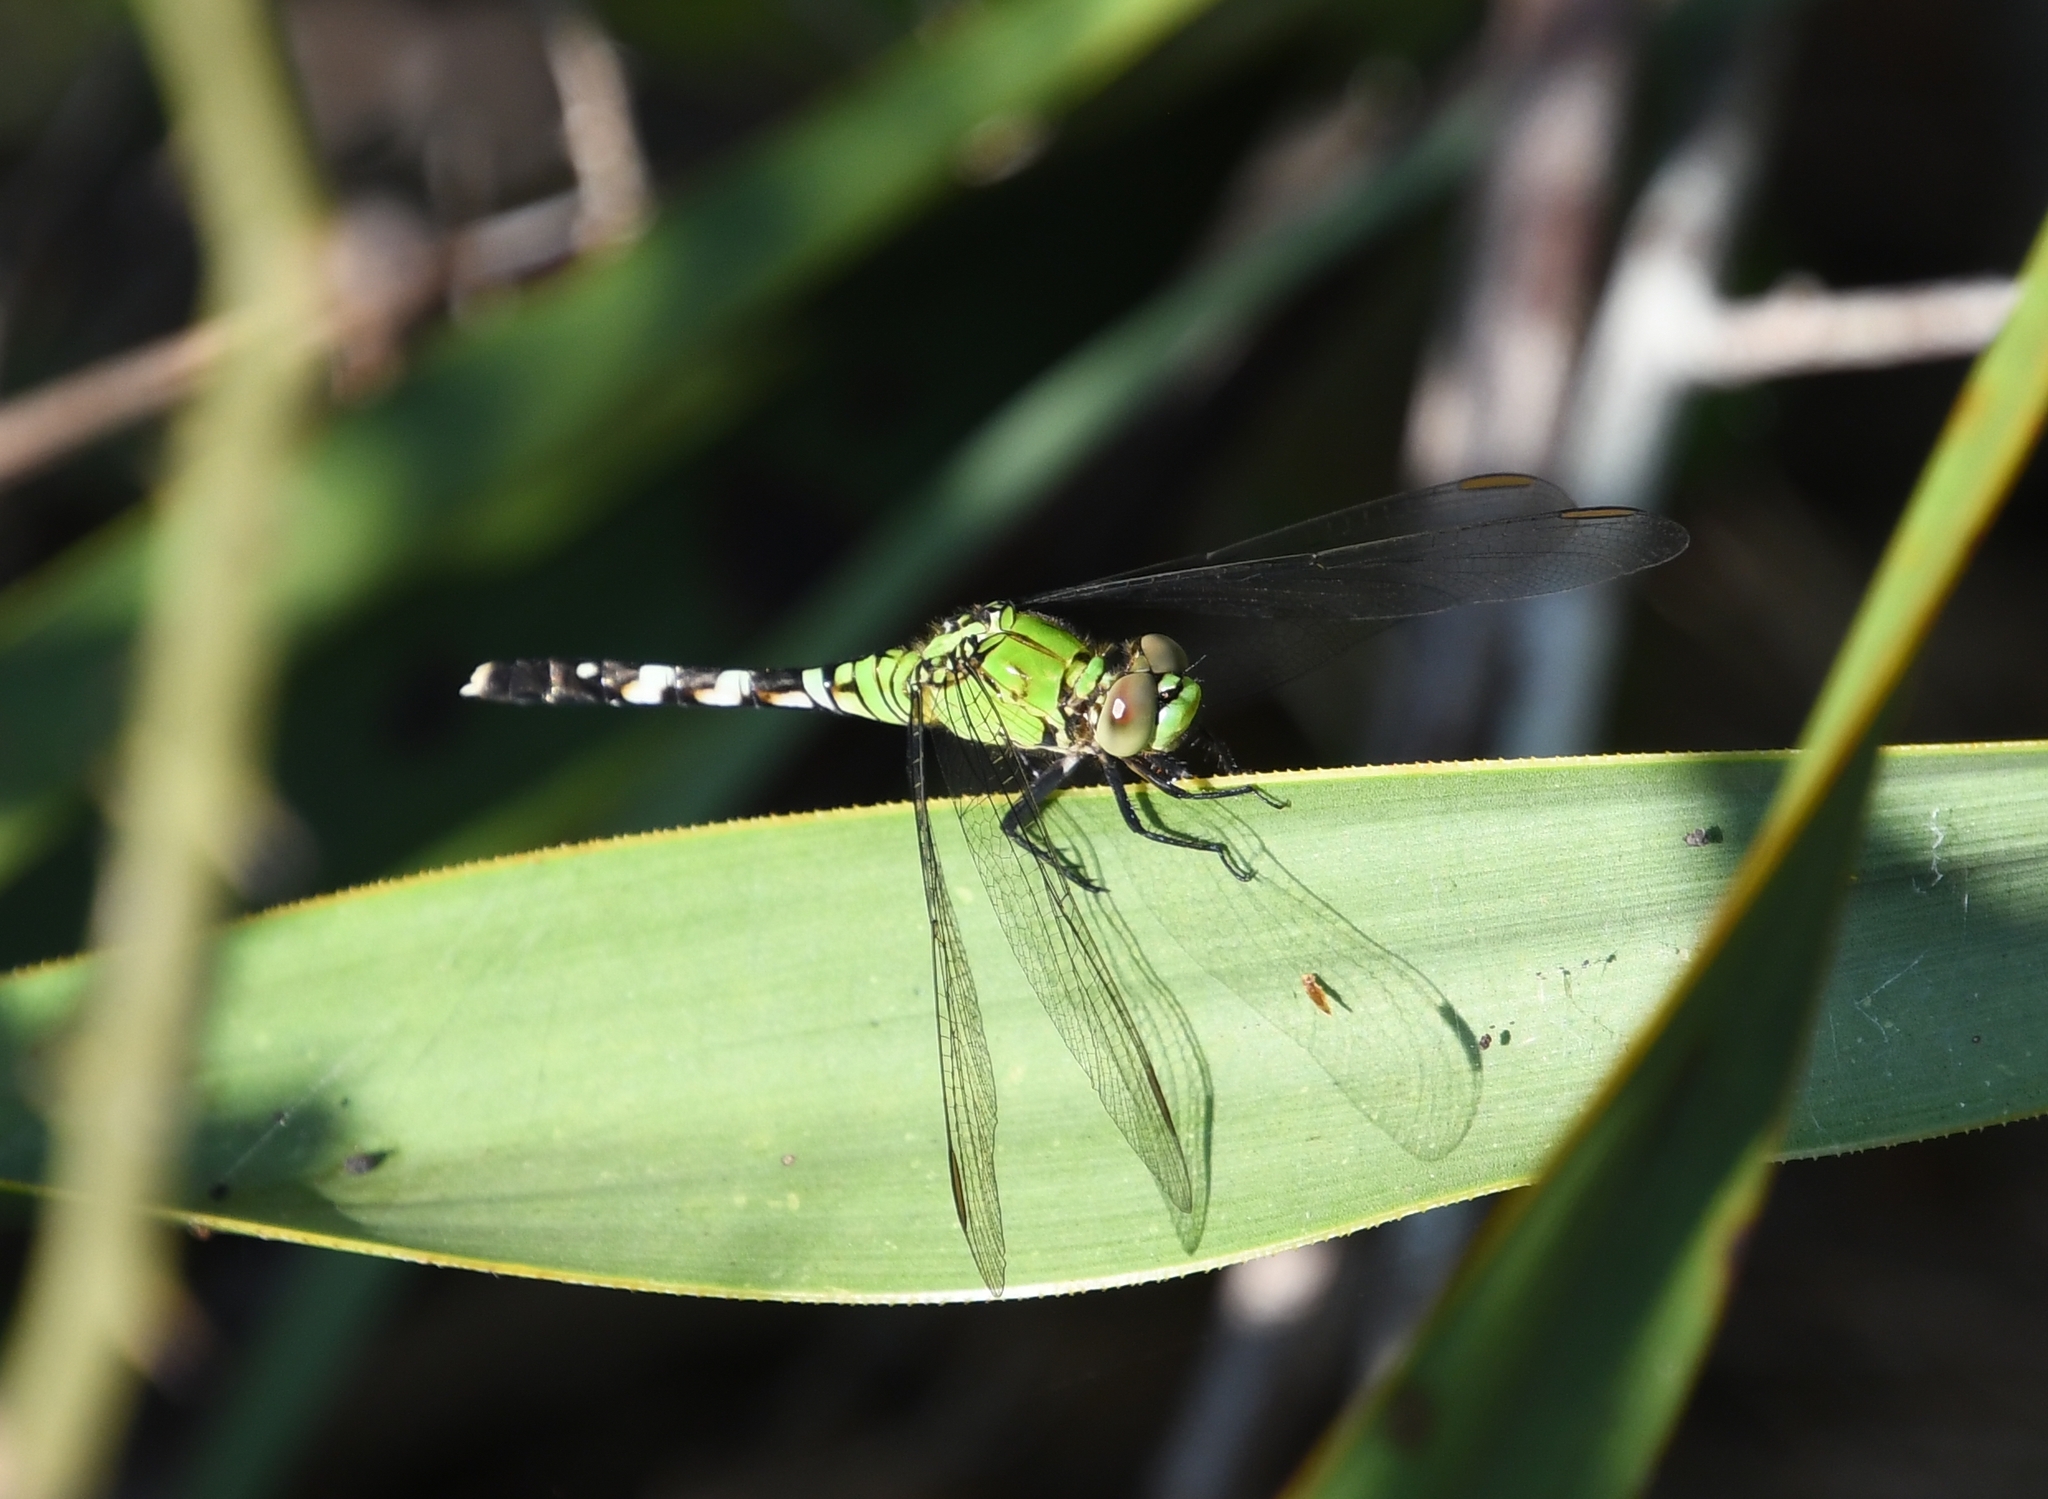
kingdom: Animalia
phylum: Arthropoda
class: Insecta
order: Odonata
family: Libellulidae
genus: Erythemis
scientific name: Erythemis simplicicollis
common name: Eastern pondhawk
